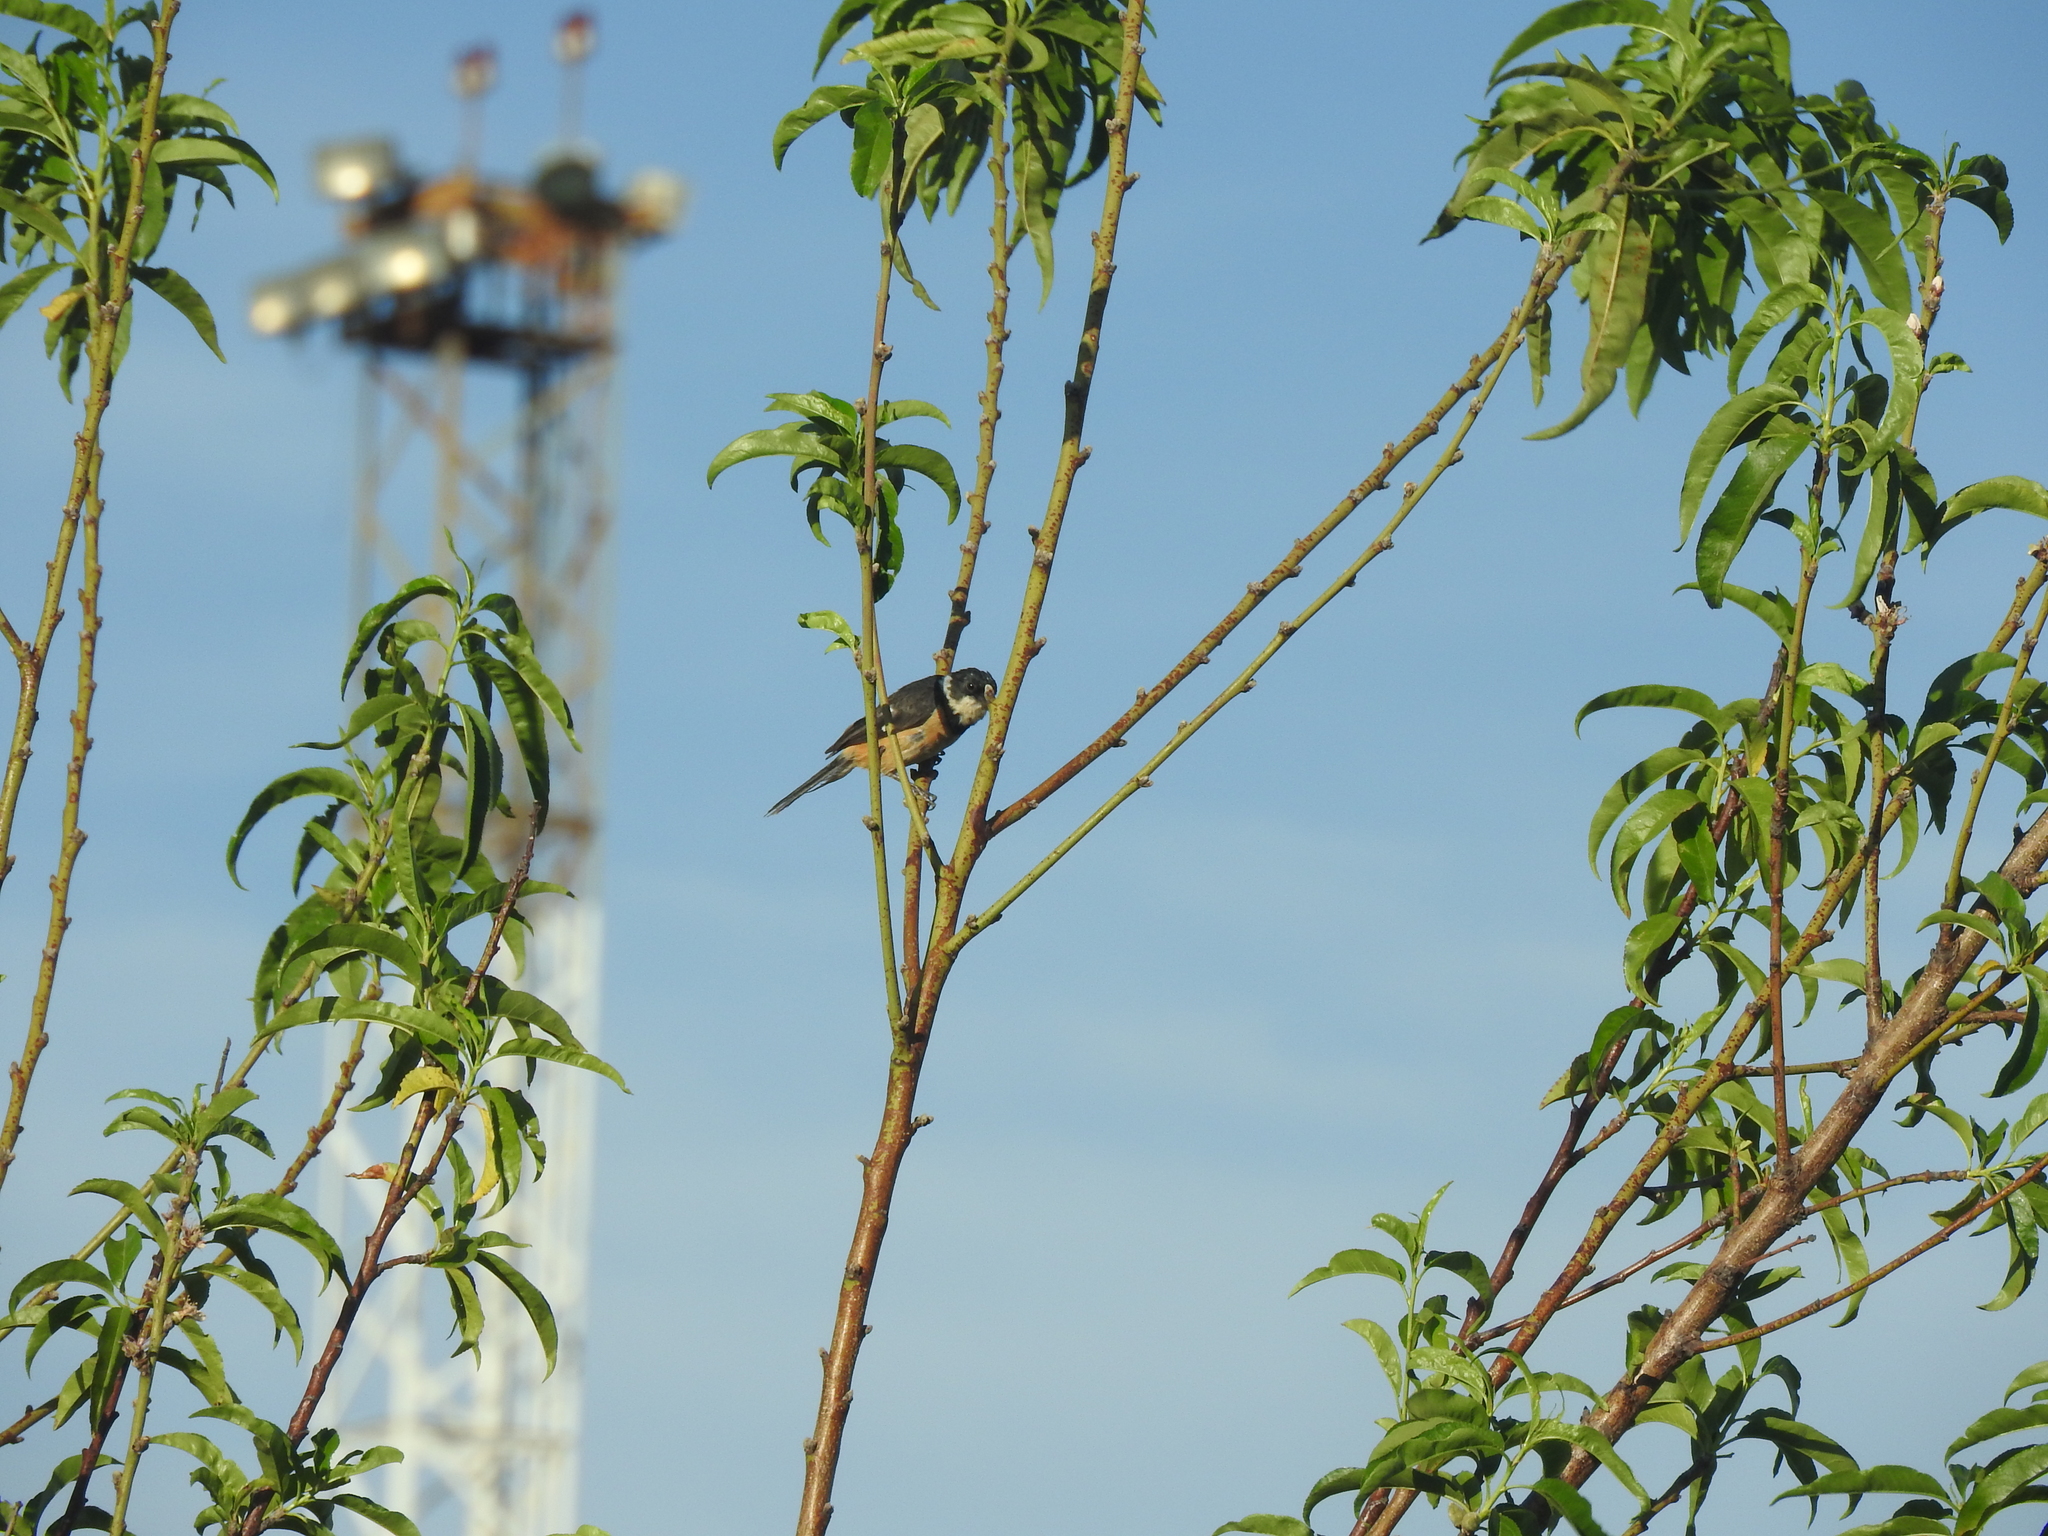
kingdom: Animalia
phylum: Chordata
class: Aves
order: Passeriformes
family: Thraupidae
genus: Sporophila
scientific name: Sporophila torqueola
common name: White-collared seedeater
